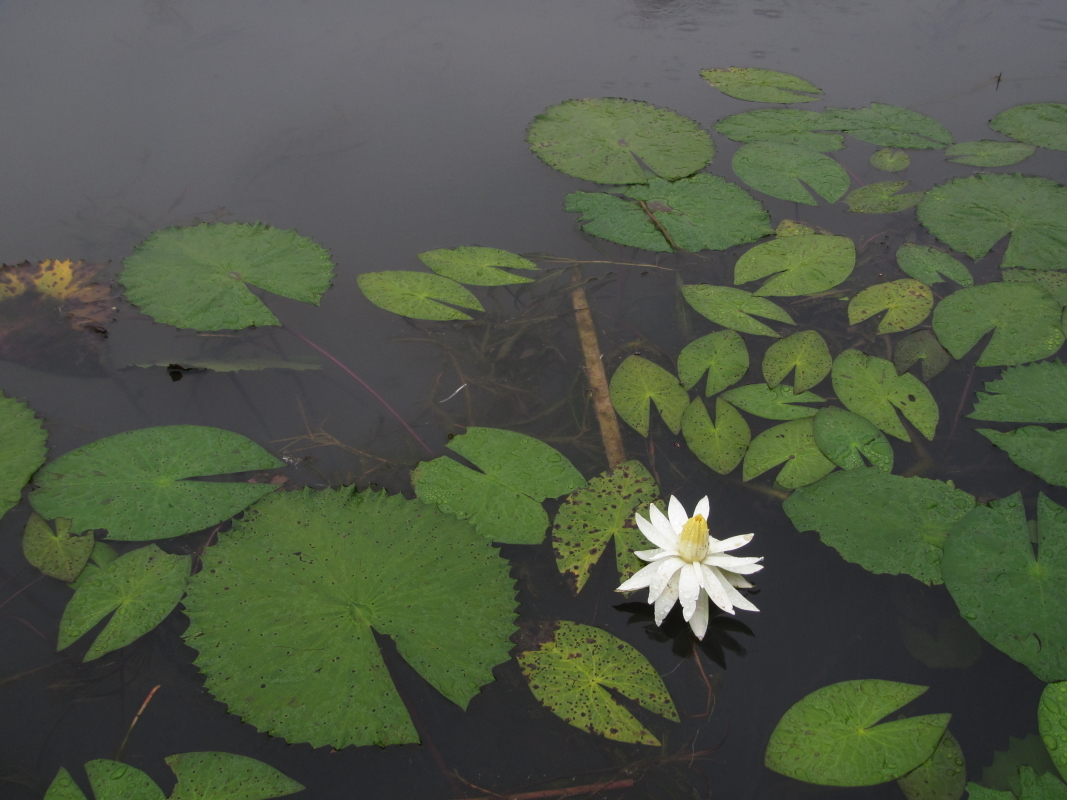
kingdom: Plantae
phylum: Tracheophyta
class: Magnoliopsida
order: Nymphaeales
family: Nymphaeaceae
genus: Nymphaea
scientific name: Nymphaea lotus
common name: White egyptian lotus
